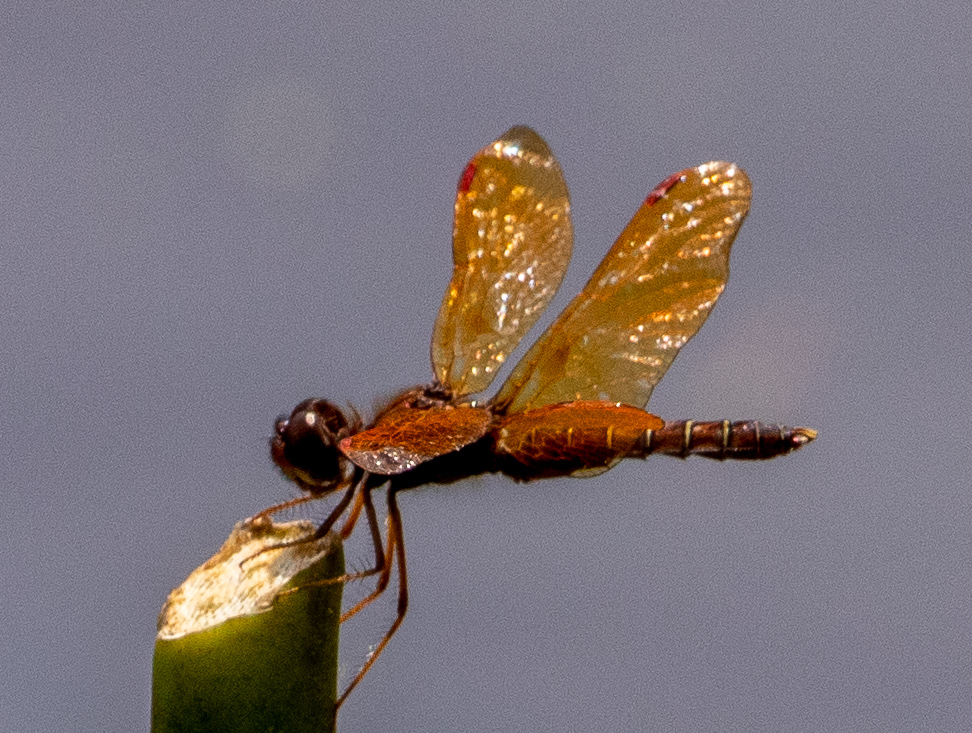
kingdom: Animalia
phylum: Arthropoda
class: Insecta
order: Odonata
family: Libellulidae
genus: Perithemis
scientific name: Perithemis tenera
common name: Eastern amberwing
